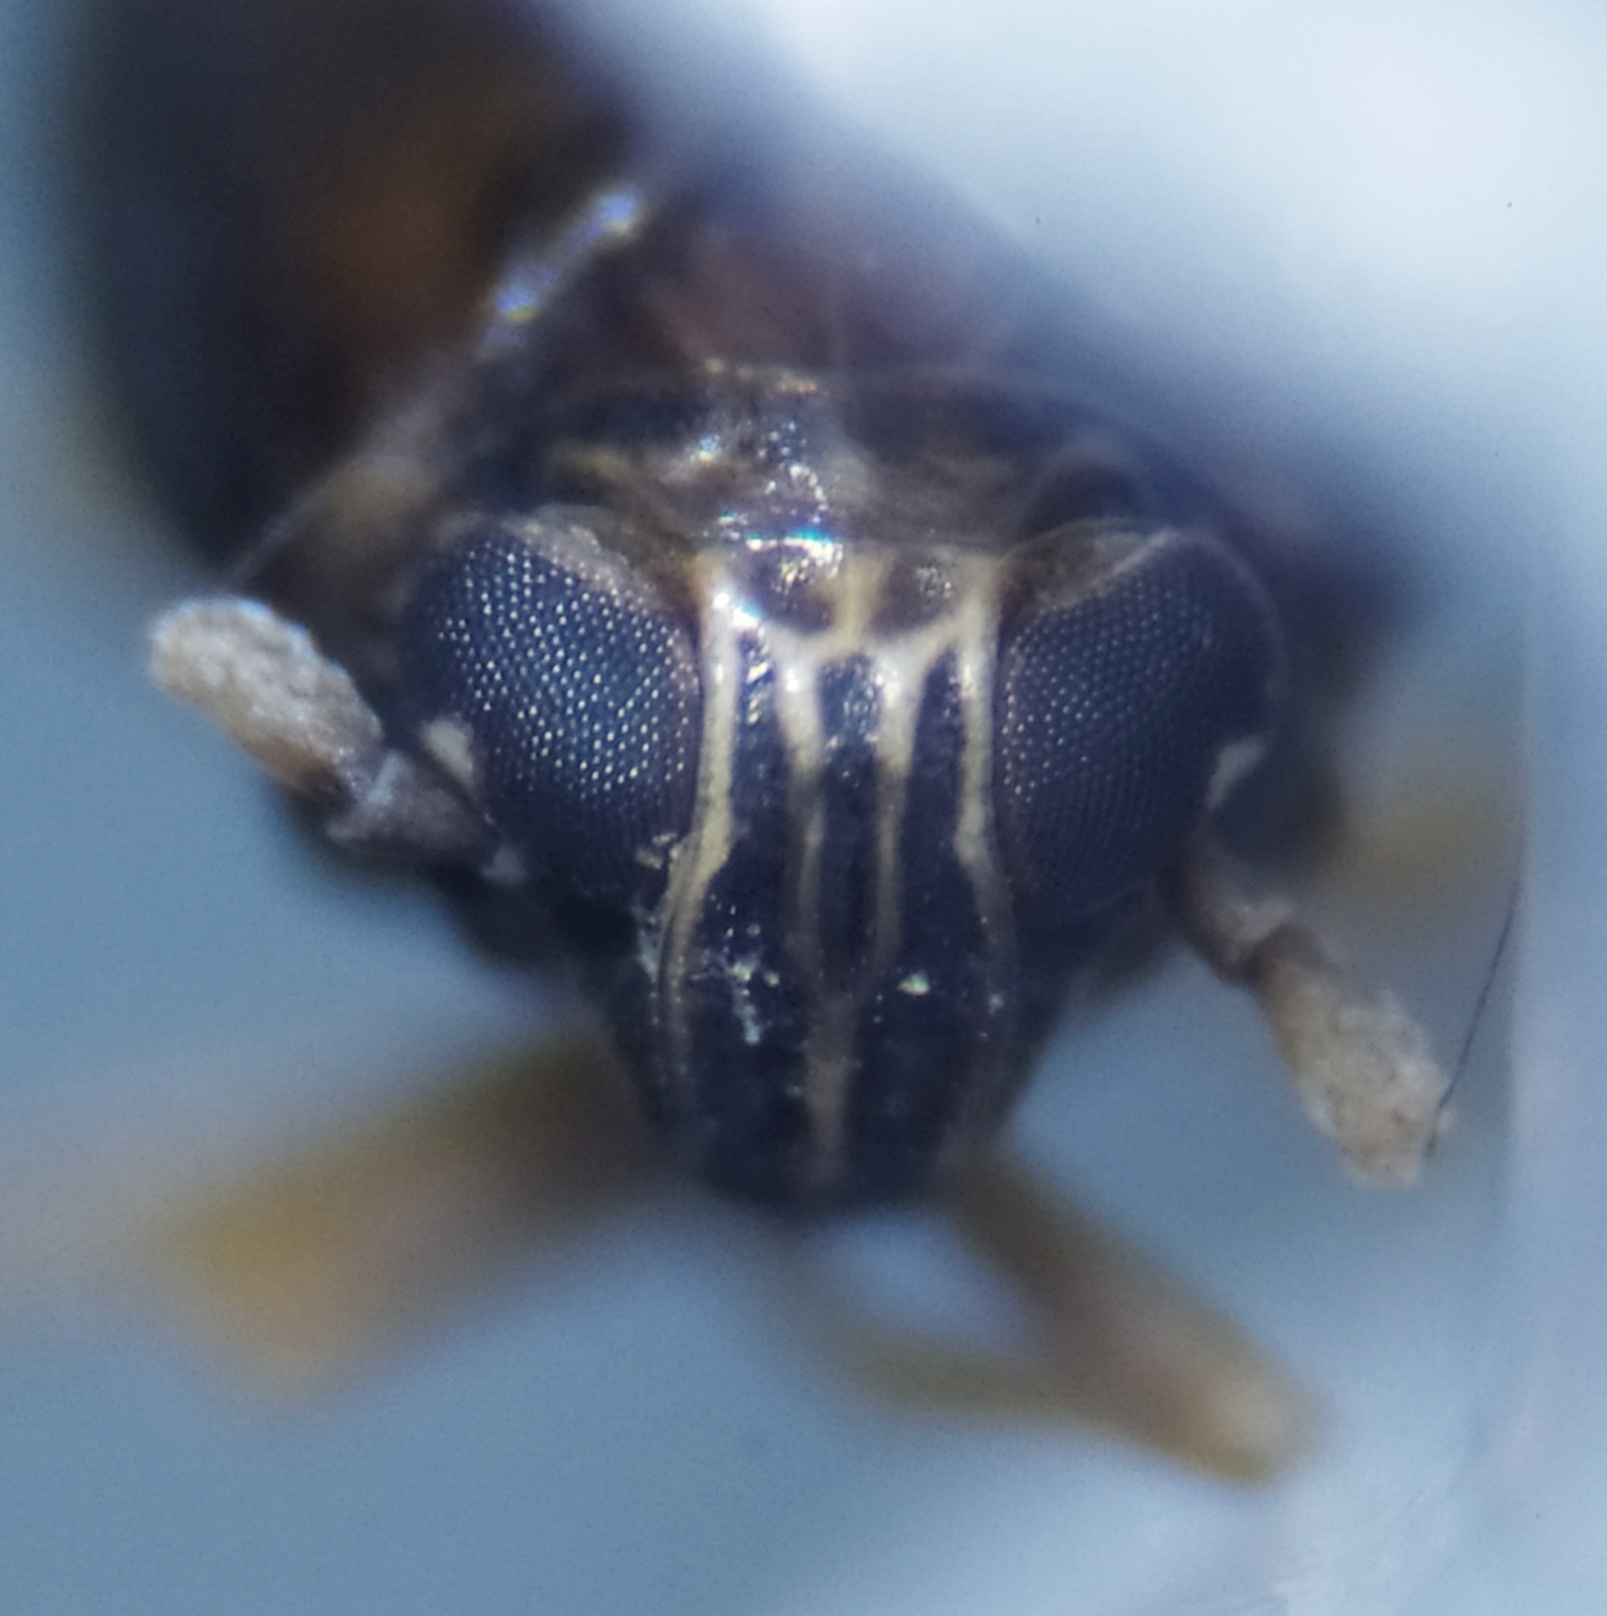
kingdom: Animalia
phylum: Arthropoda
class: Insecta
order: Hemiptera
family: Delphacidae
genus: Ditropsis
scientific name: Ditropsis flavipes
